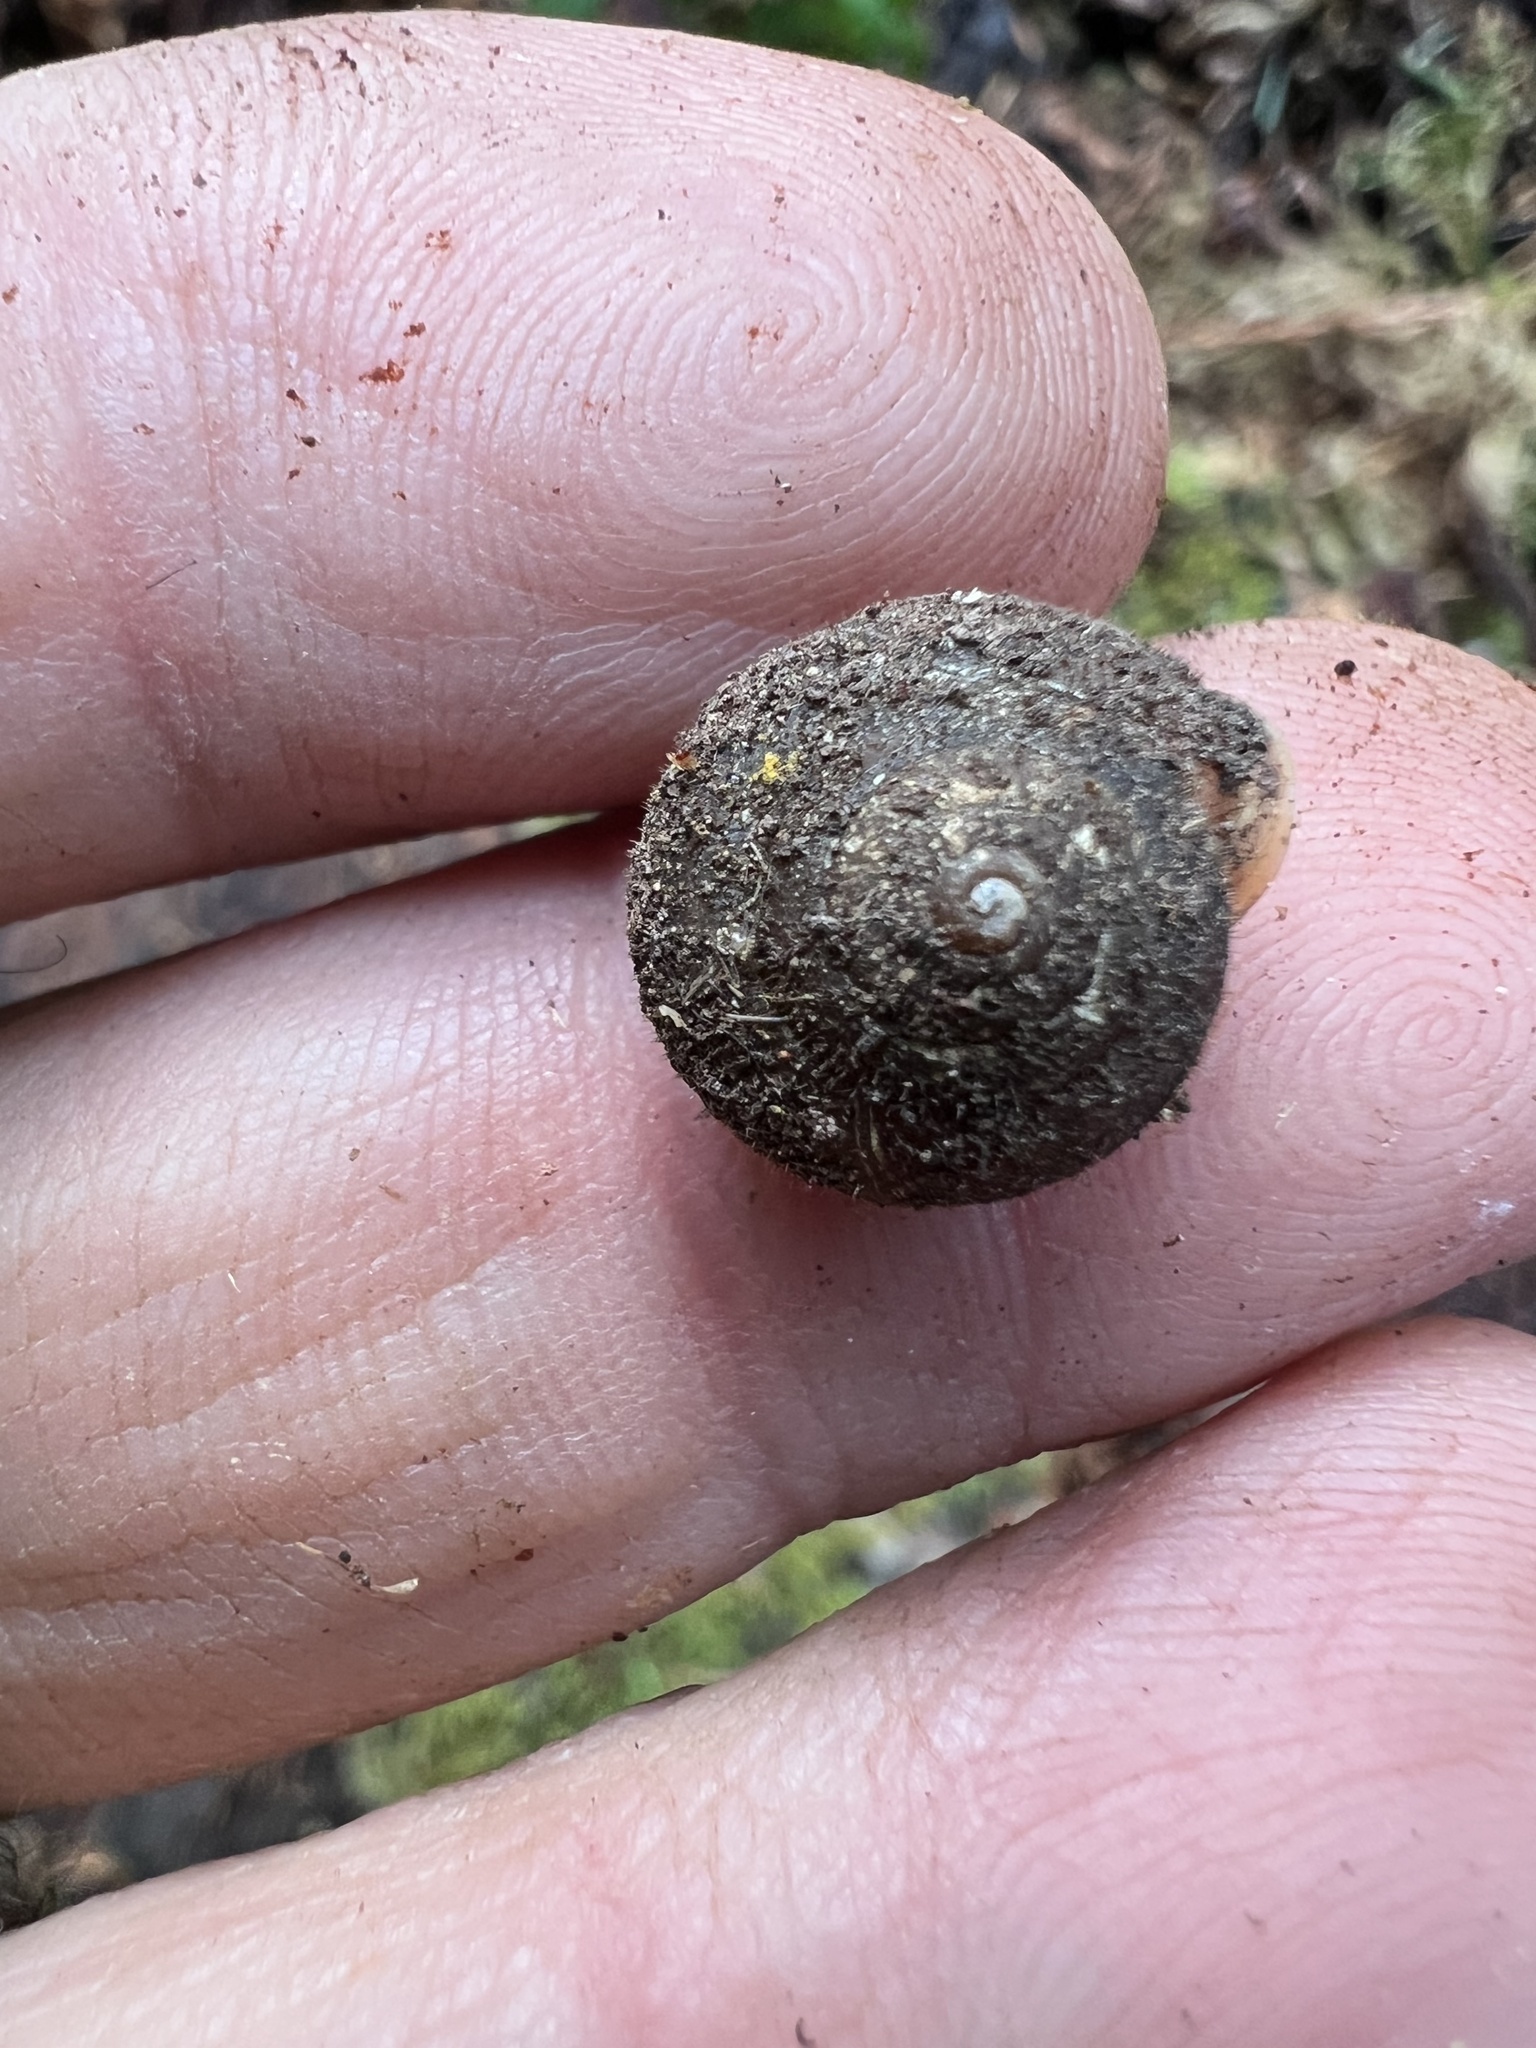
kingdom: Animalia
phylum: Mollusca
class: Gastropoda
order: Stylommatophora
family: Polygyridae
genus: Vespericola
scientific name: Vespericola columbianus
